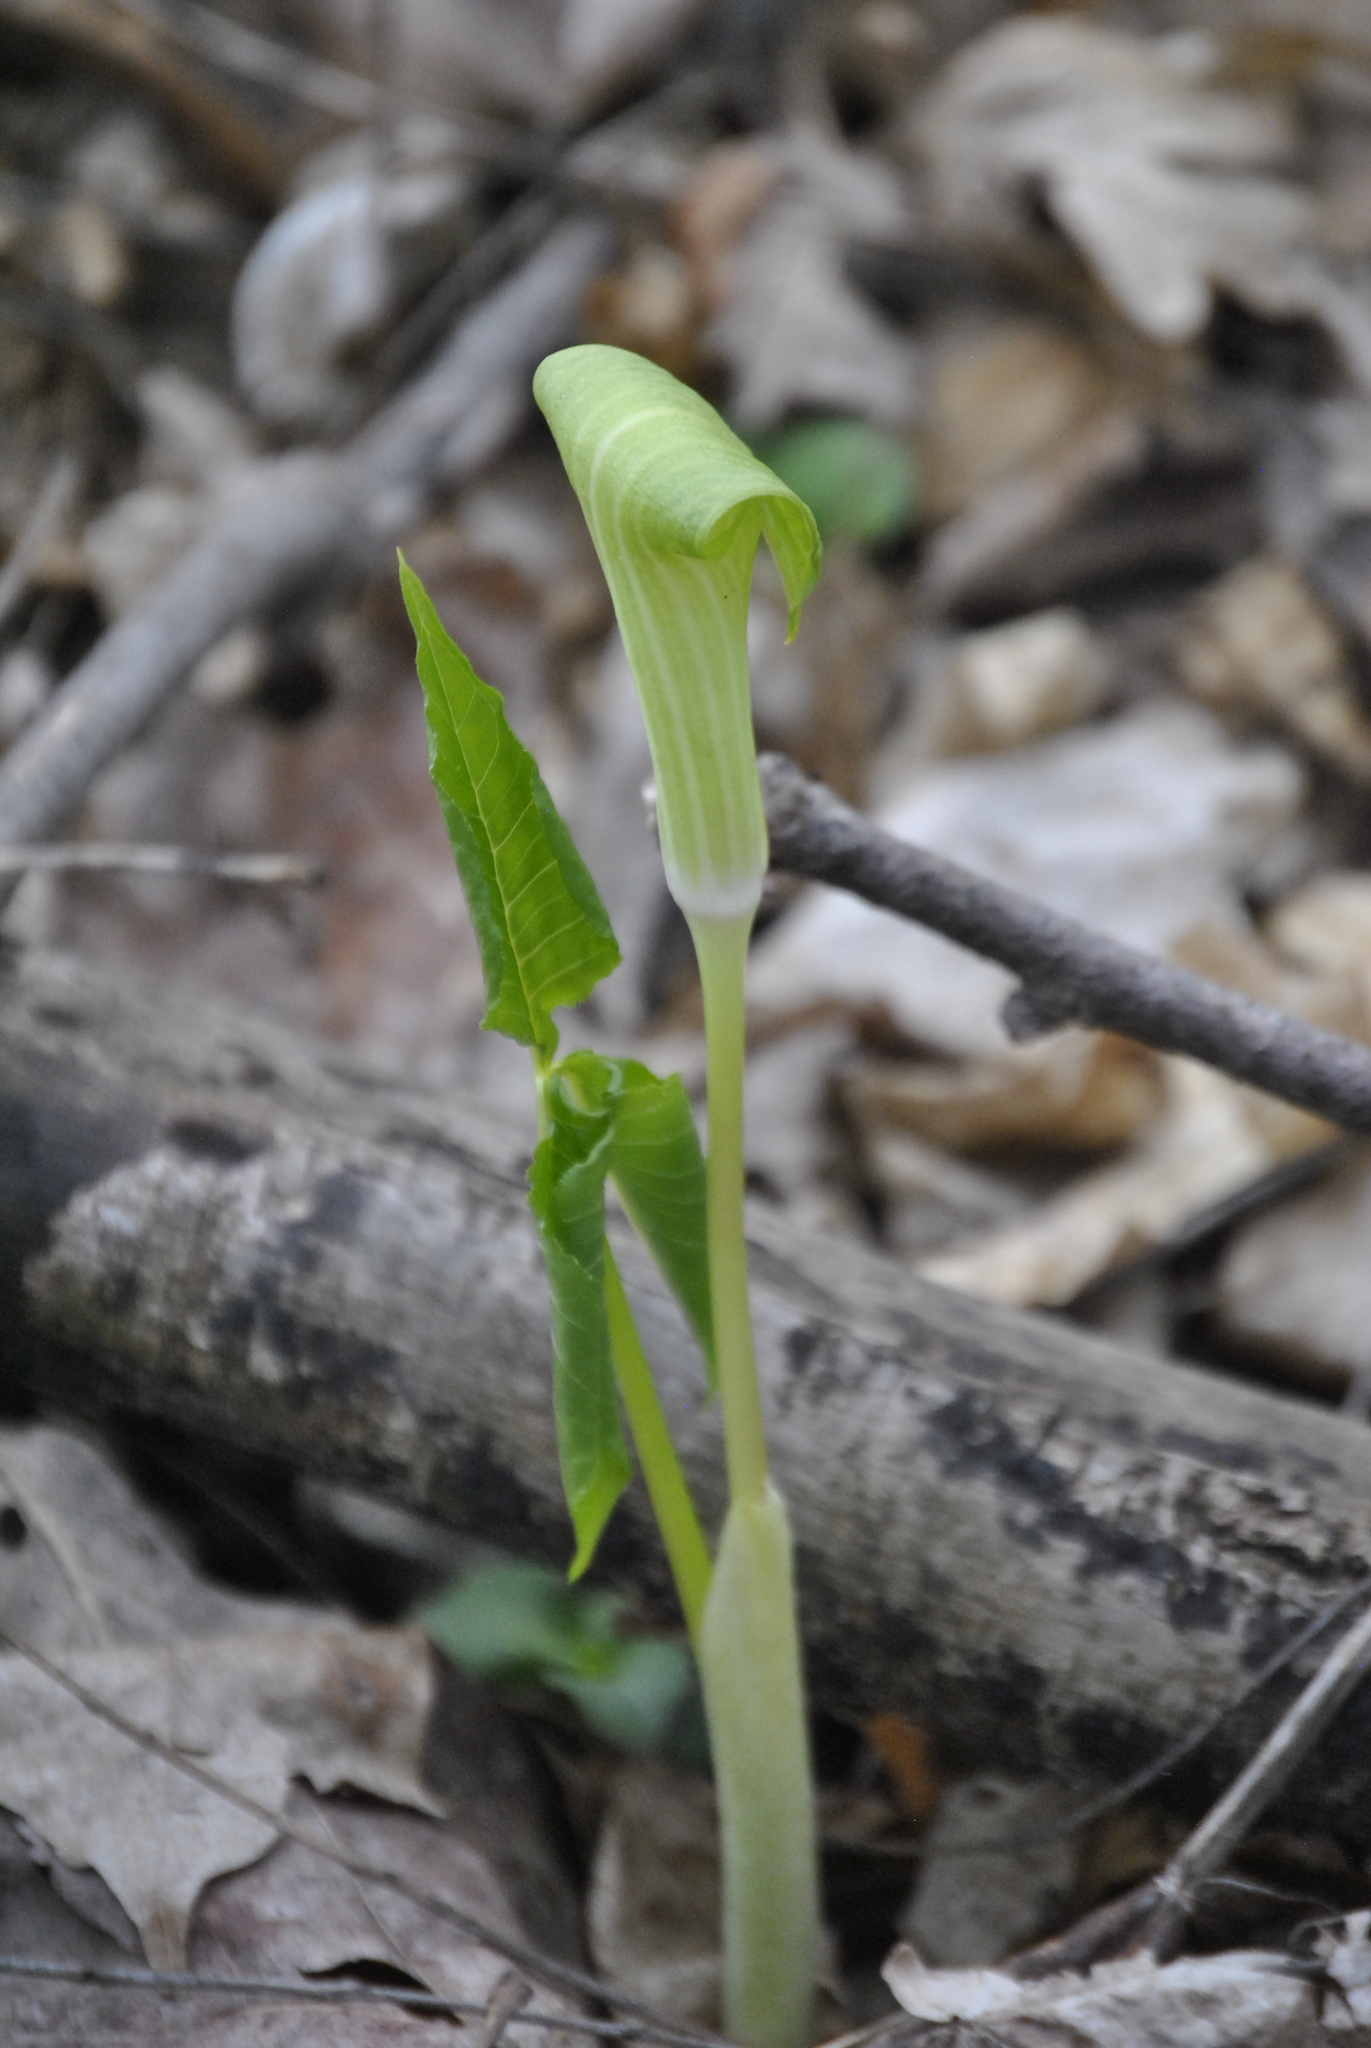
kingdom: Plantae
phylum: Tracheophyta
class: Liliopsida
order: Alismatales
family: Araceae
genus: Arisaema
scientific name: Arisaema triphyllum
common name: Jack-in-the-pulpit
